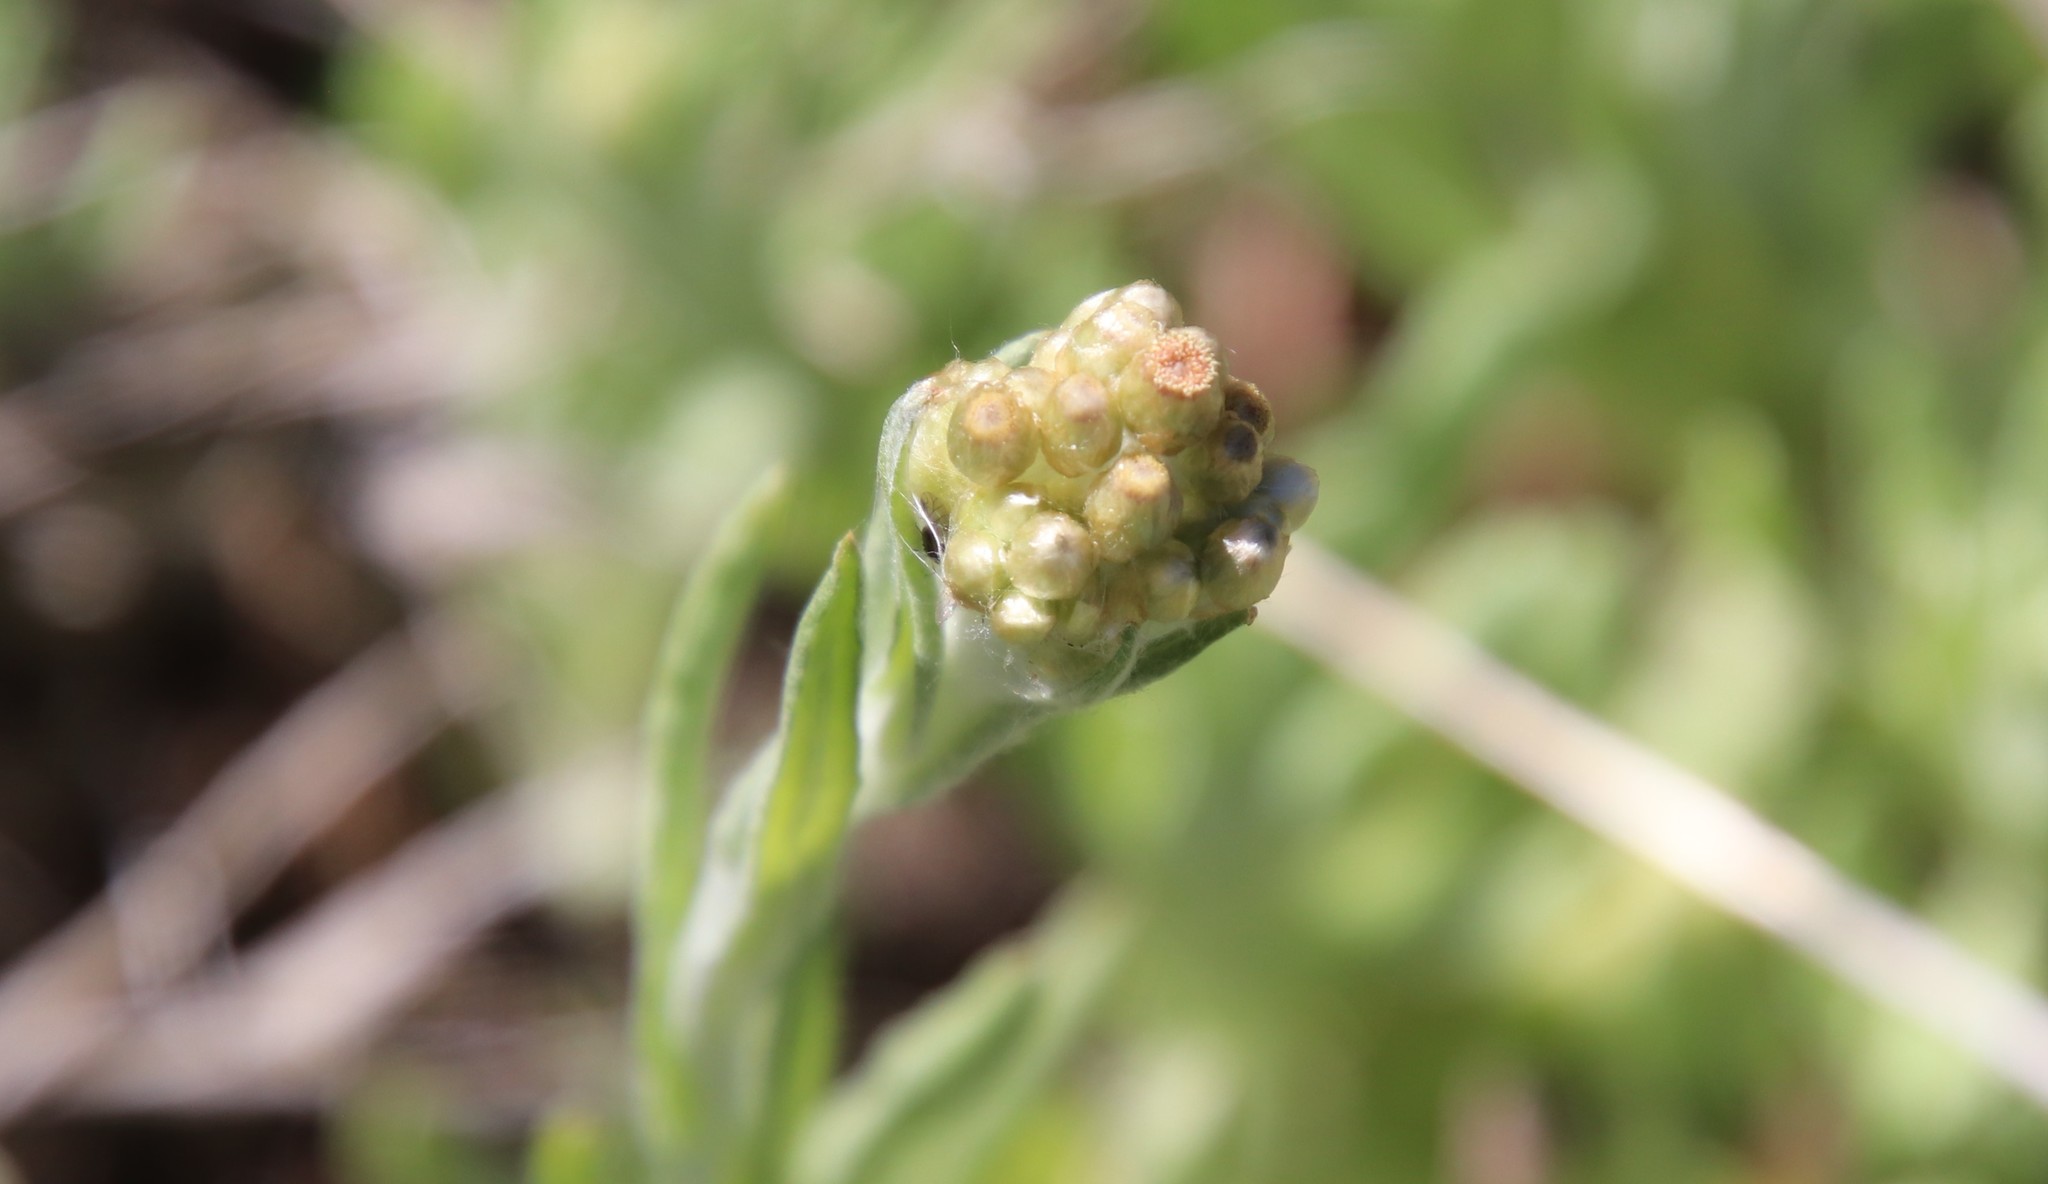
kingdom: Plantae
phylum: Tracheophyta
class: Magnoliopsida
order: Asterales
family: Asteraceae
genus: Helichrysum
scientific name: Helichrysum luteoalbum
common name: Daisy
